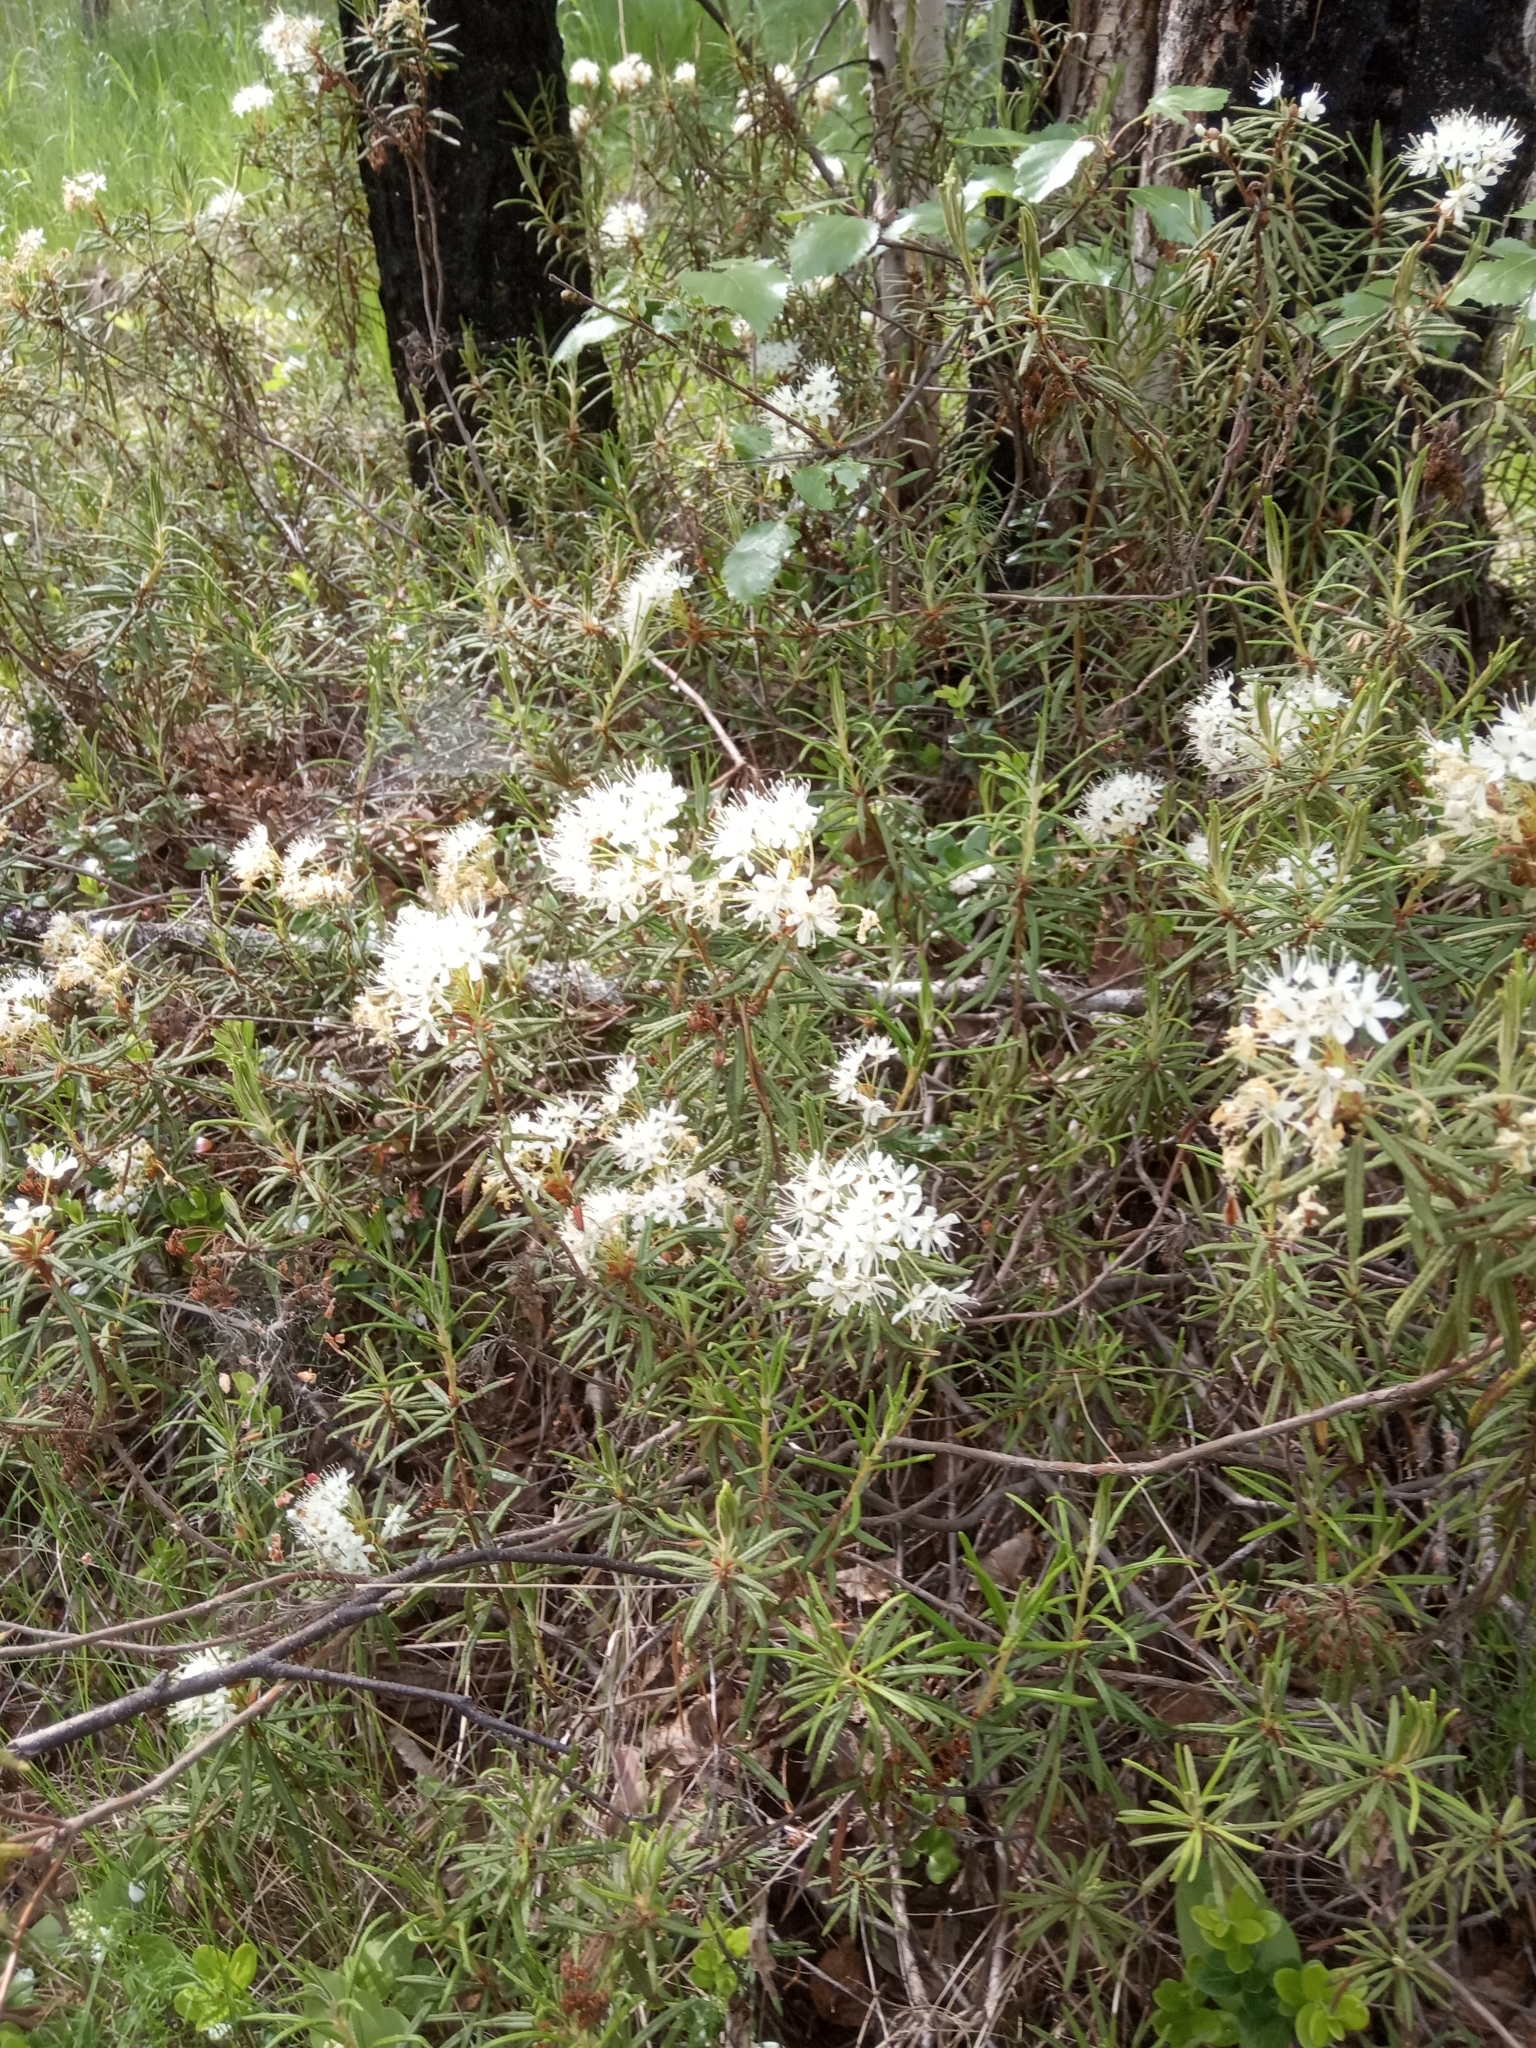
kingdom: Plantae
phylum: Tracheophyta
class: Magnoliopsida
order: Ericales
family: Ericaceae
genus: Rhododendron
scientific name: Rhododendron tomentosum
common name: Marsh labrador tea
